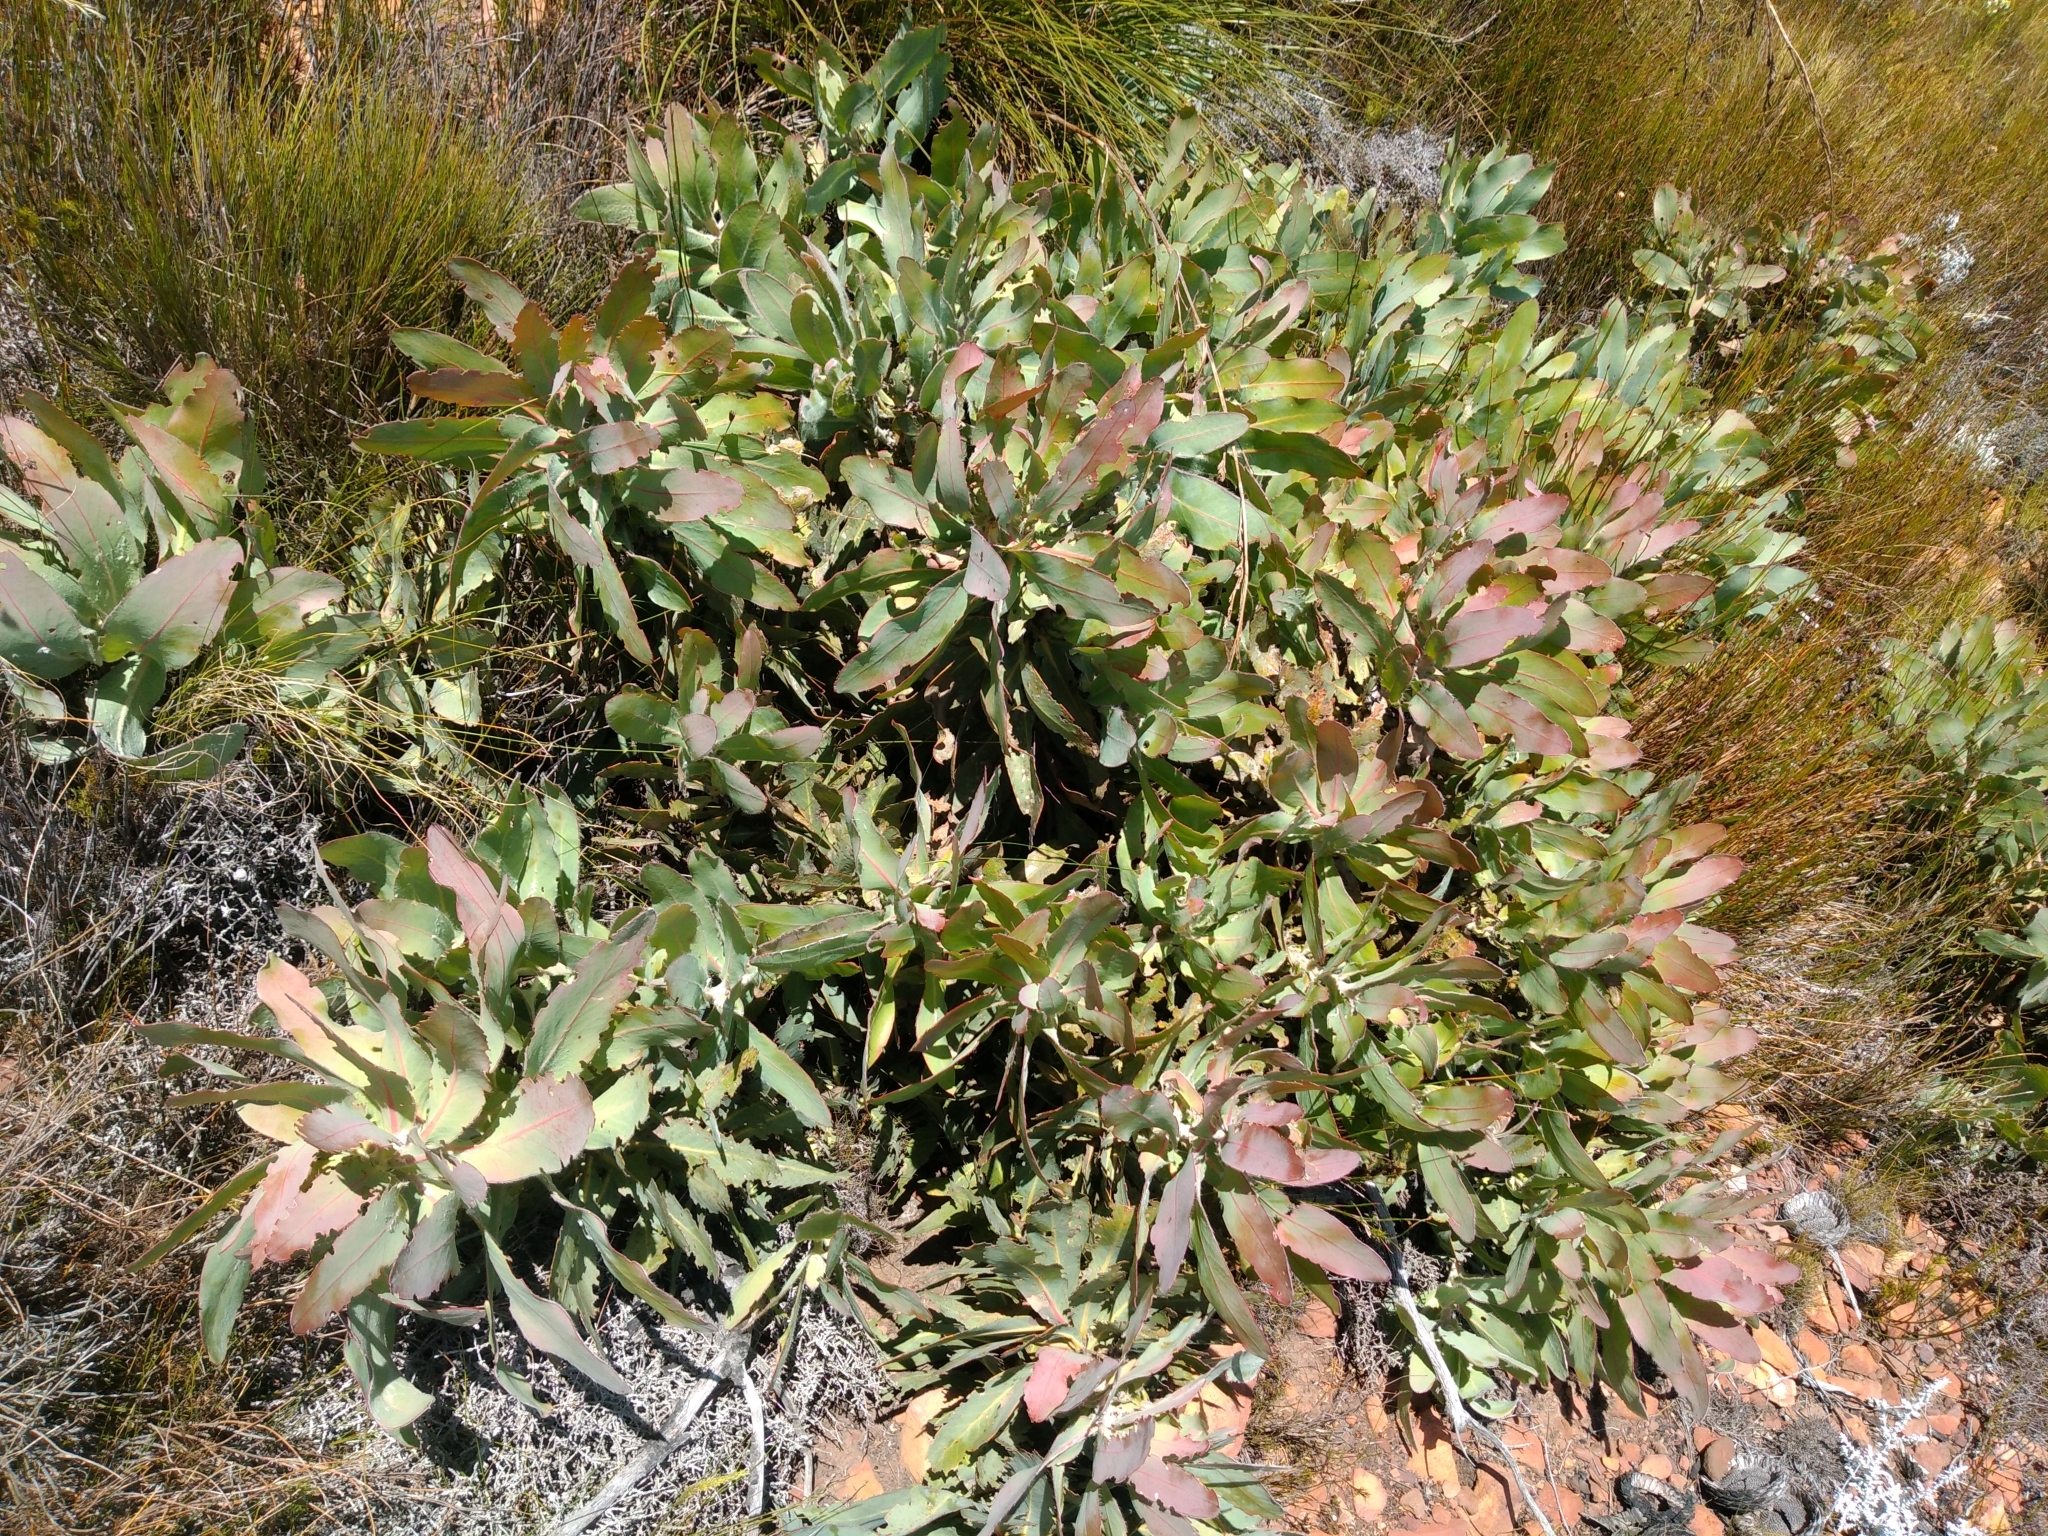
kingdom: Plantae
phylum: Tracheophyta
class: Magnoliopsida
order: Proteales
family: Proteaceae
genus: Protea
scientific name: Protea magnifica
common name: Bearded sugarbush
